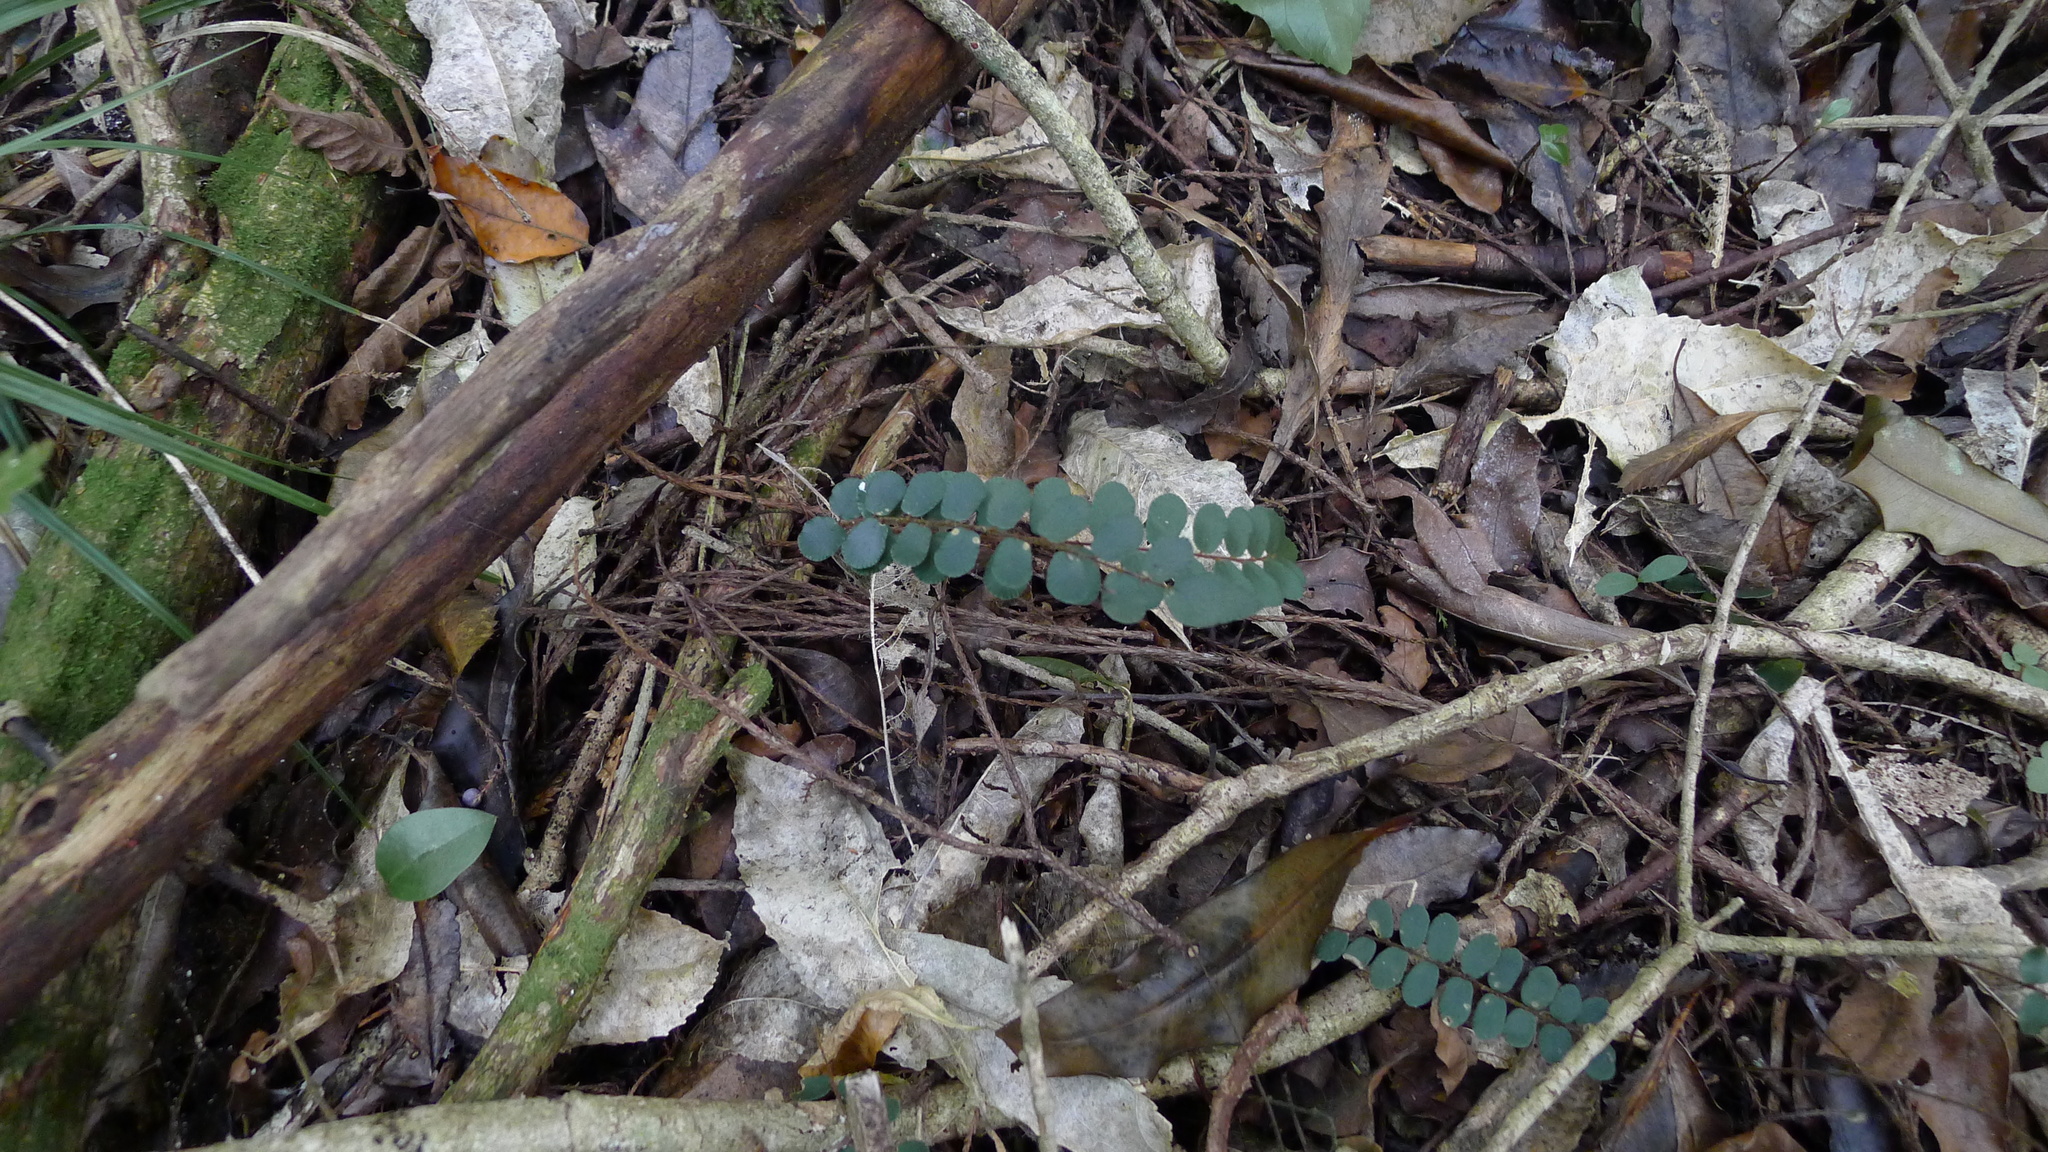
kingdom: Plantae
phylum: Tracheophyta
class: Polypodiopsida
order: Polypodiales
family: Pteridaceae
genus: Pellaea
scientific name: Pellaea rotundifolia
